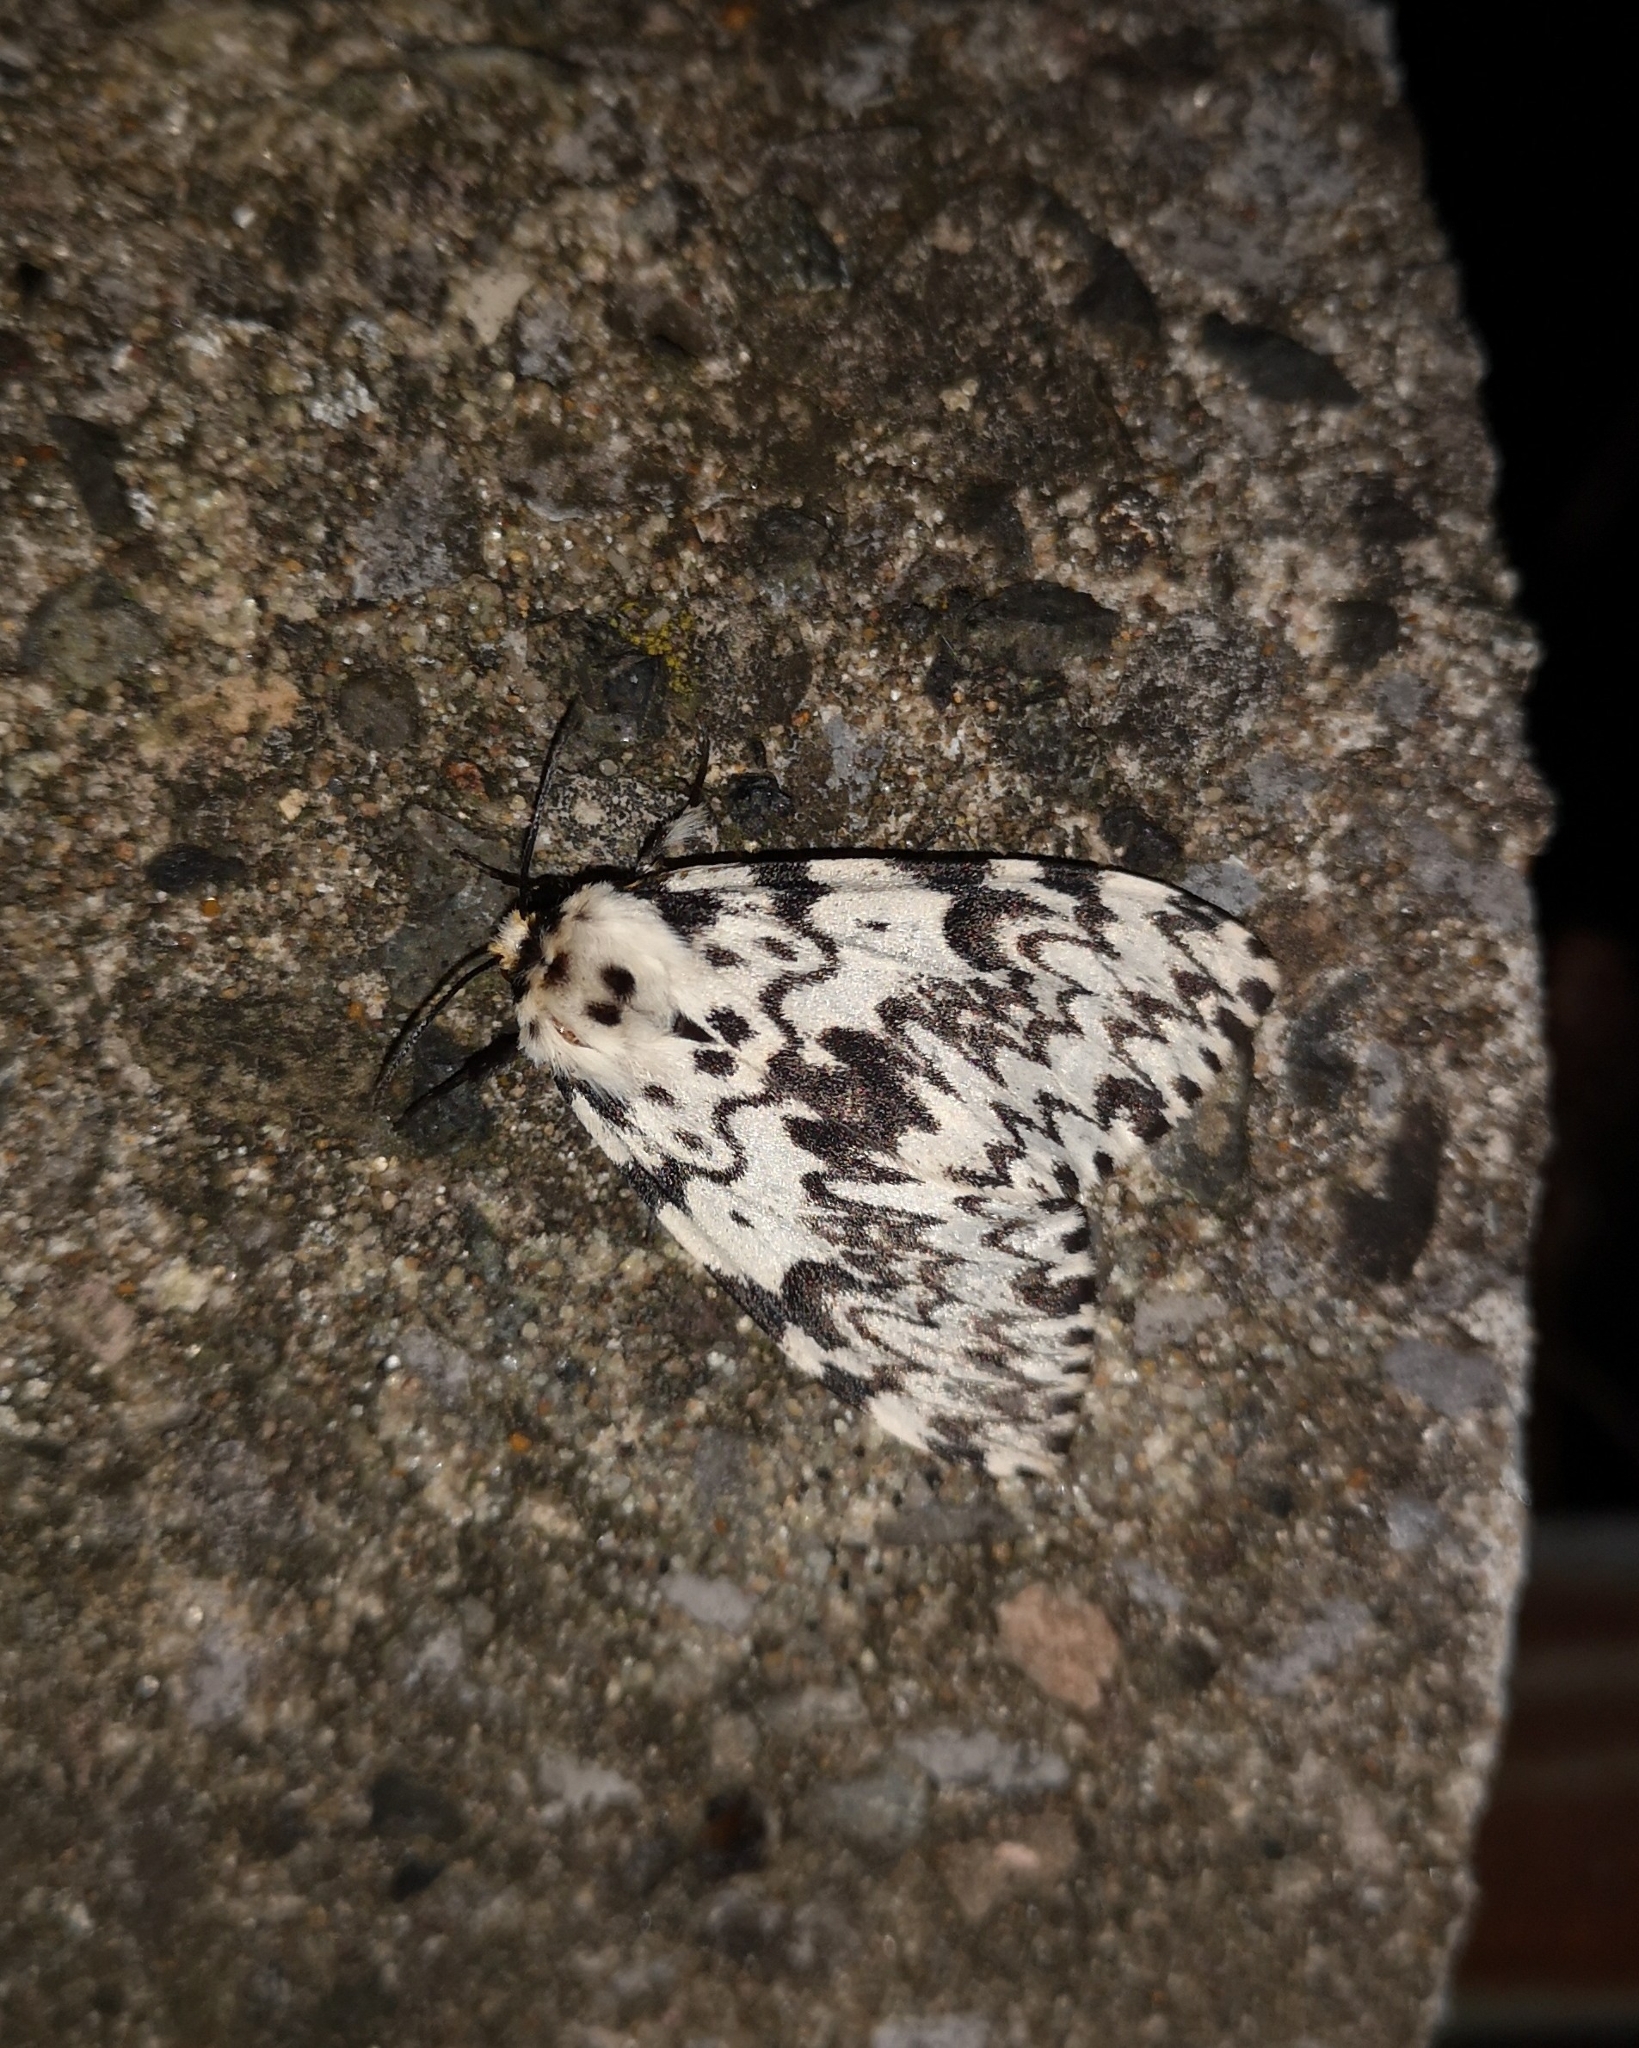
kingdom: Animalia
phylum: Arthropoda
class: Insecta
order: Lepidoptera
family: Erebidae
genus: Lymantria
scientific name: Lymantria monacha
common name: Black arches
